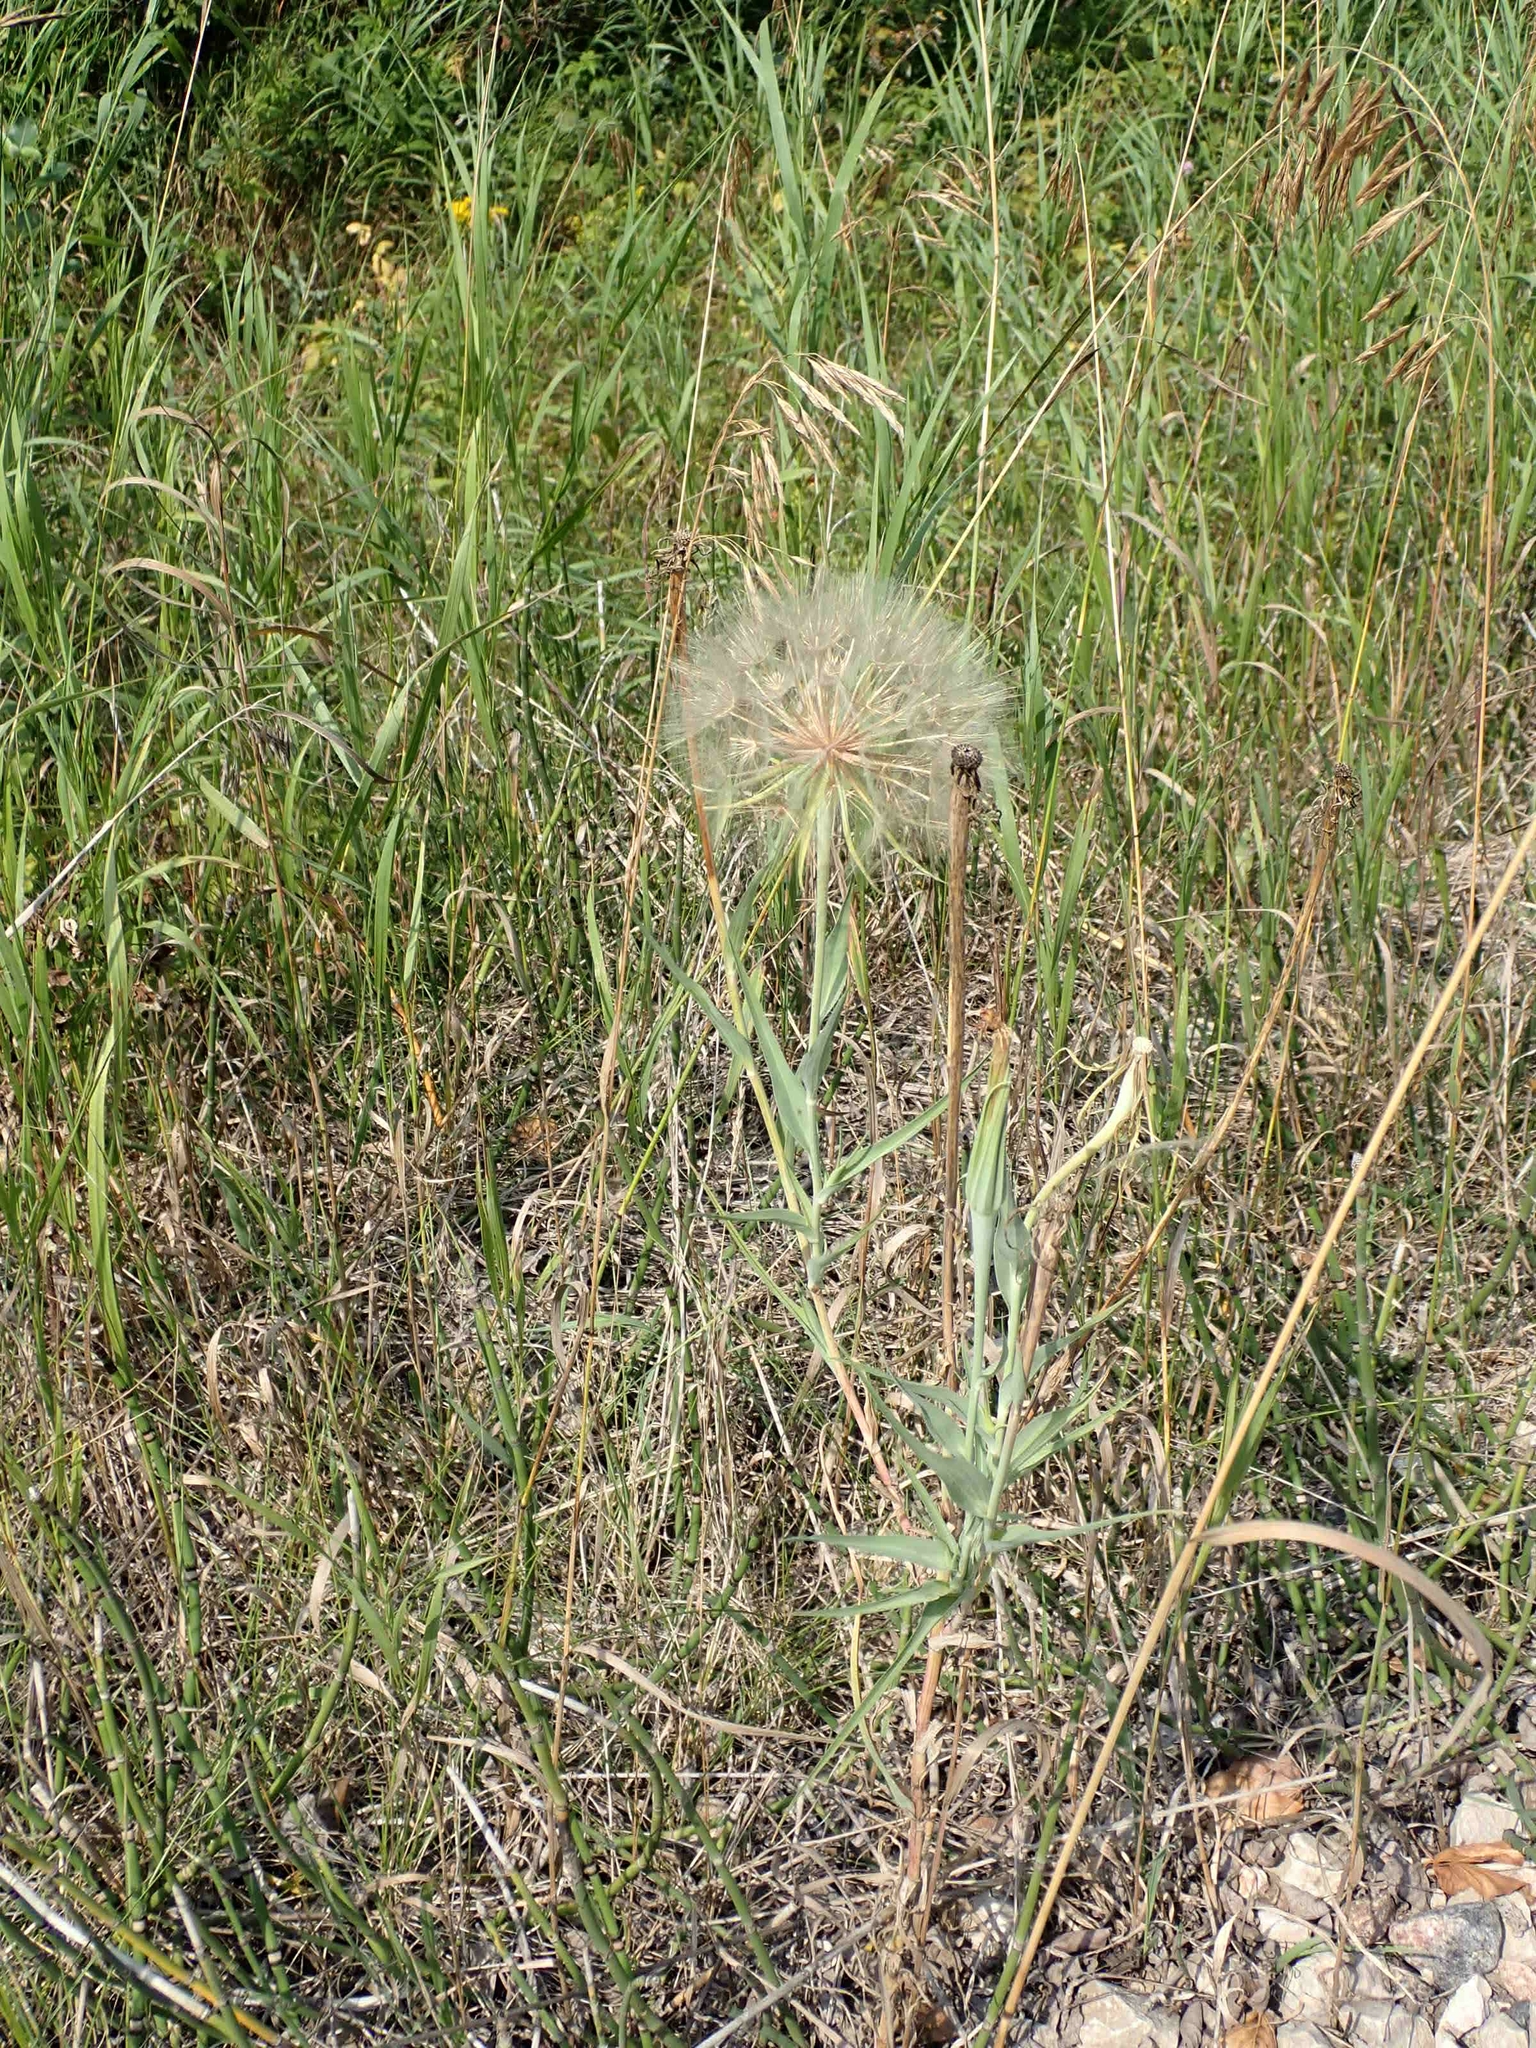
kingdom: Plantae
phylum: Tracheophyta
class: Magnoliopsida
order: Asterales
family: Asteraceae
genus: Tragopogon
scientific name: Tragopogon dubius
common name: Yellow salsify
